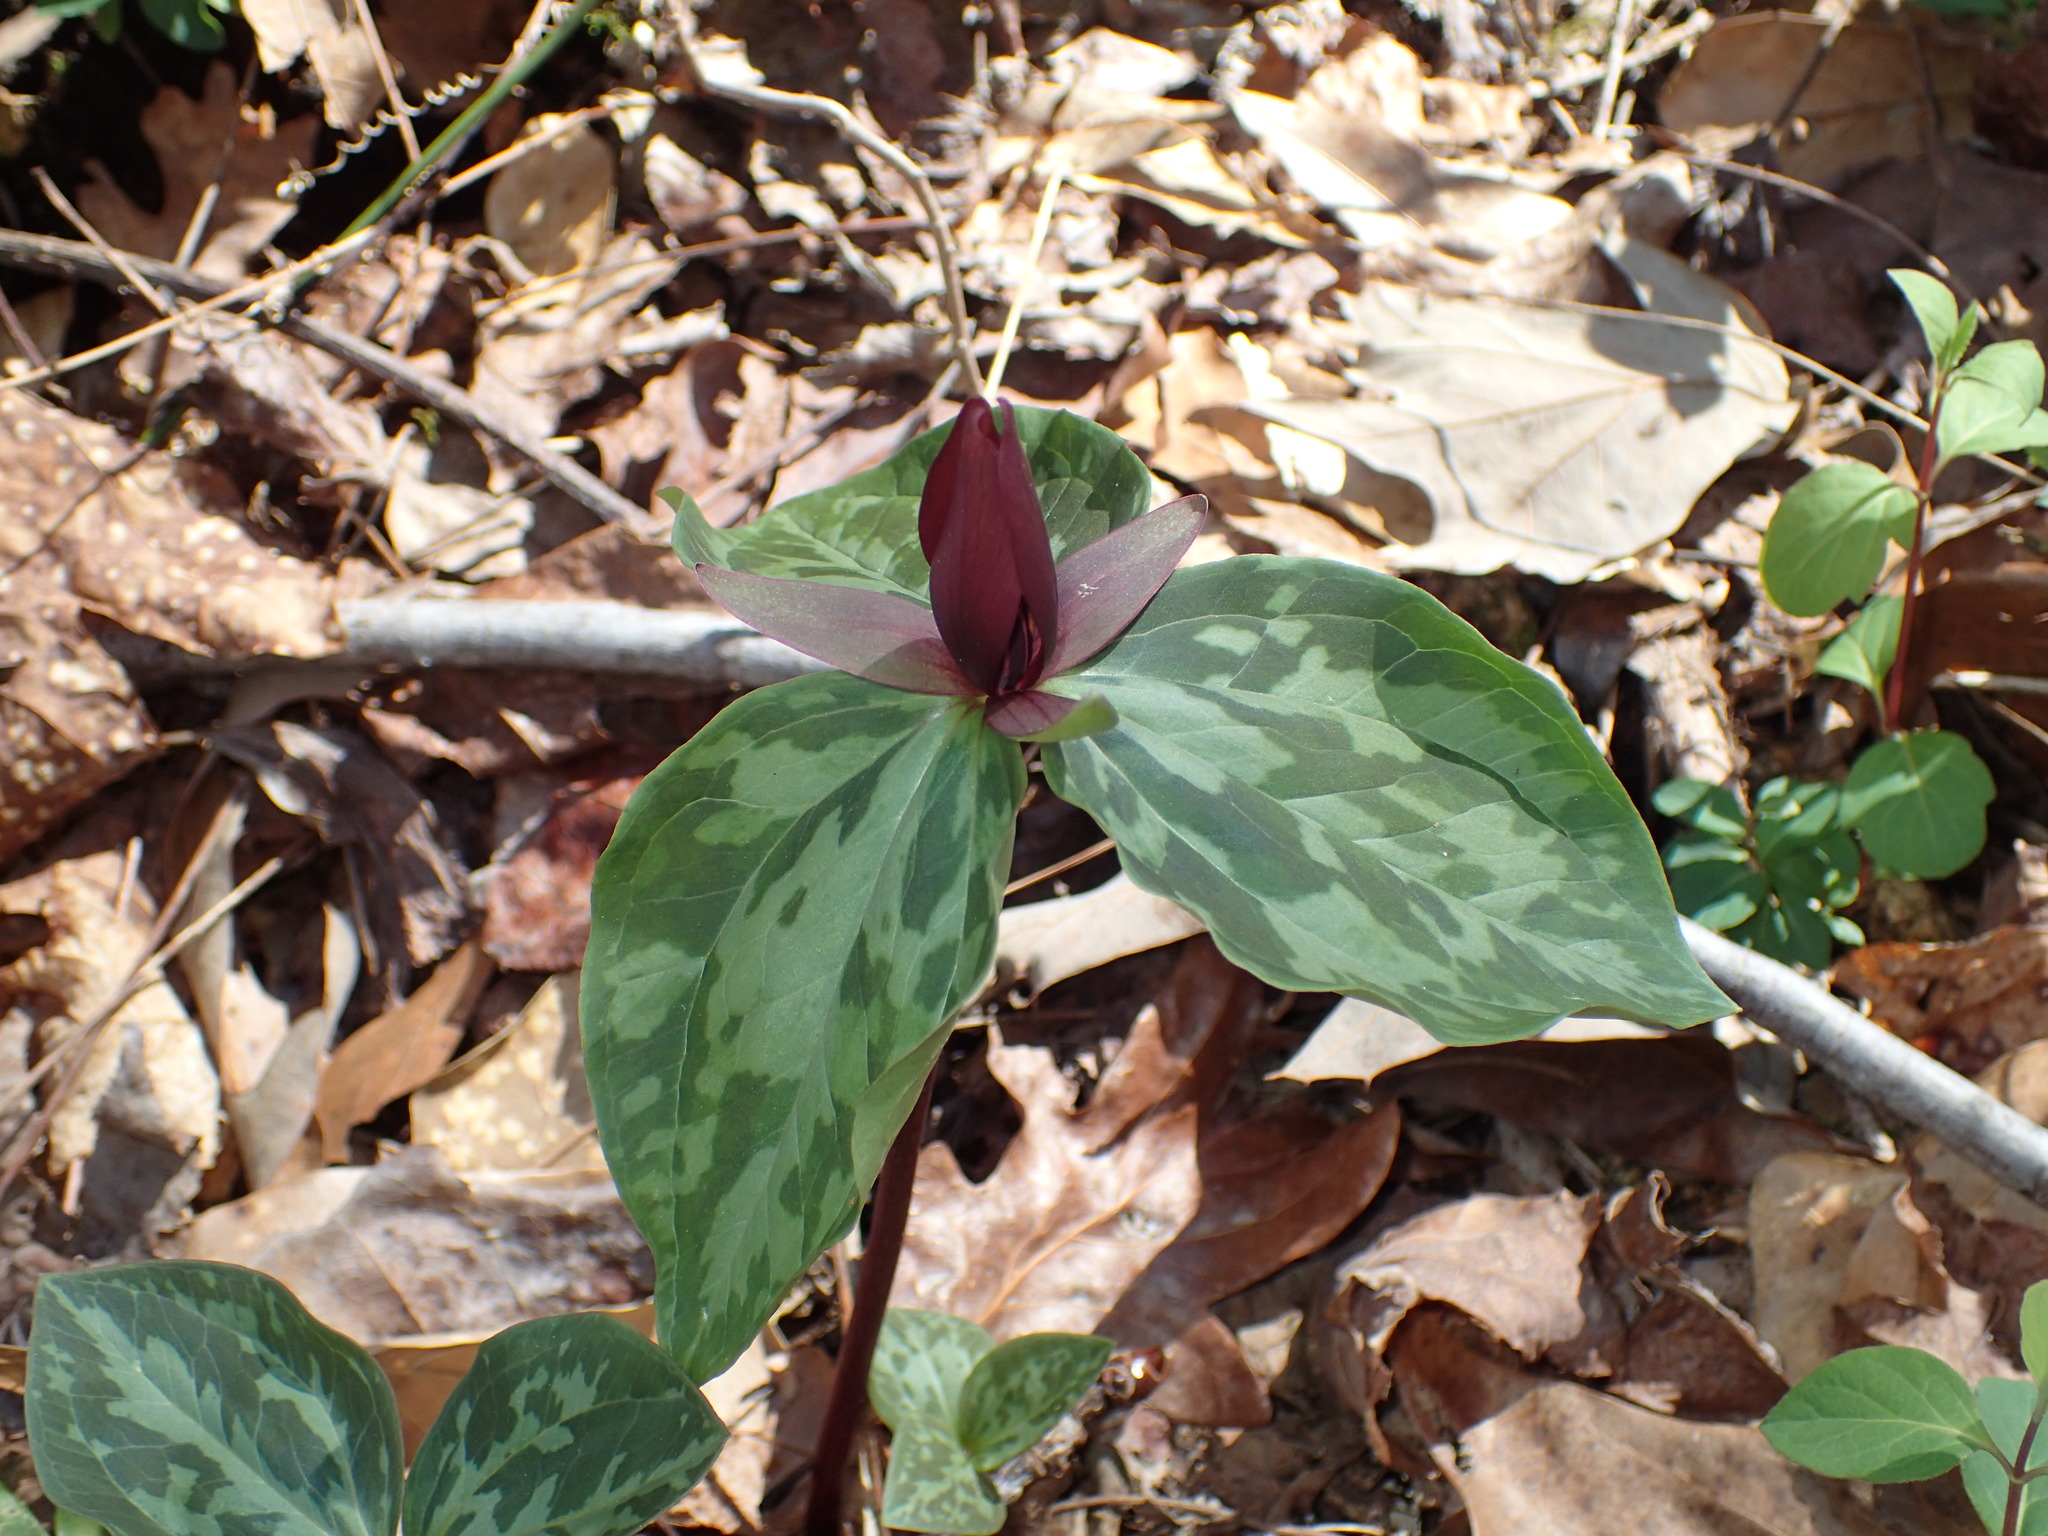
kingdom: Plantae
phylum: Tracheophyta
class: Liliopsida
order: Liliales
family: Melanthiaceae
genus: Trillium
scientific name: Trillium cuneatum
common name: Cuneate trillium
